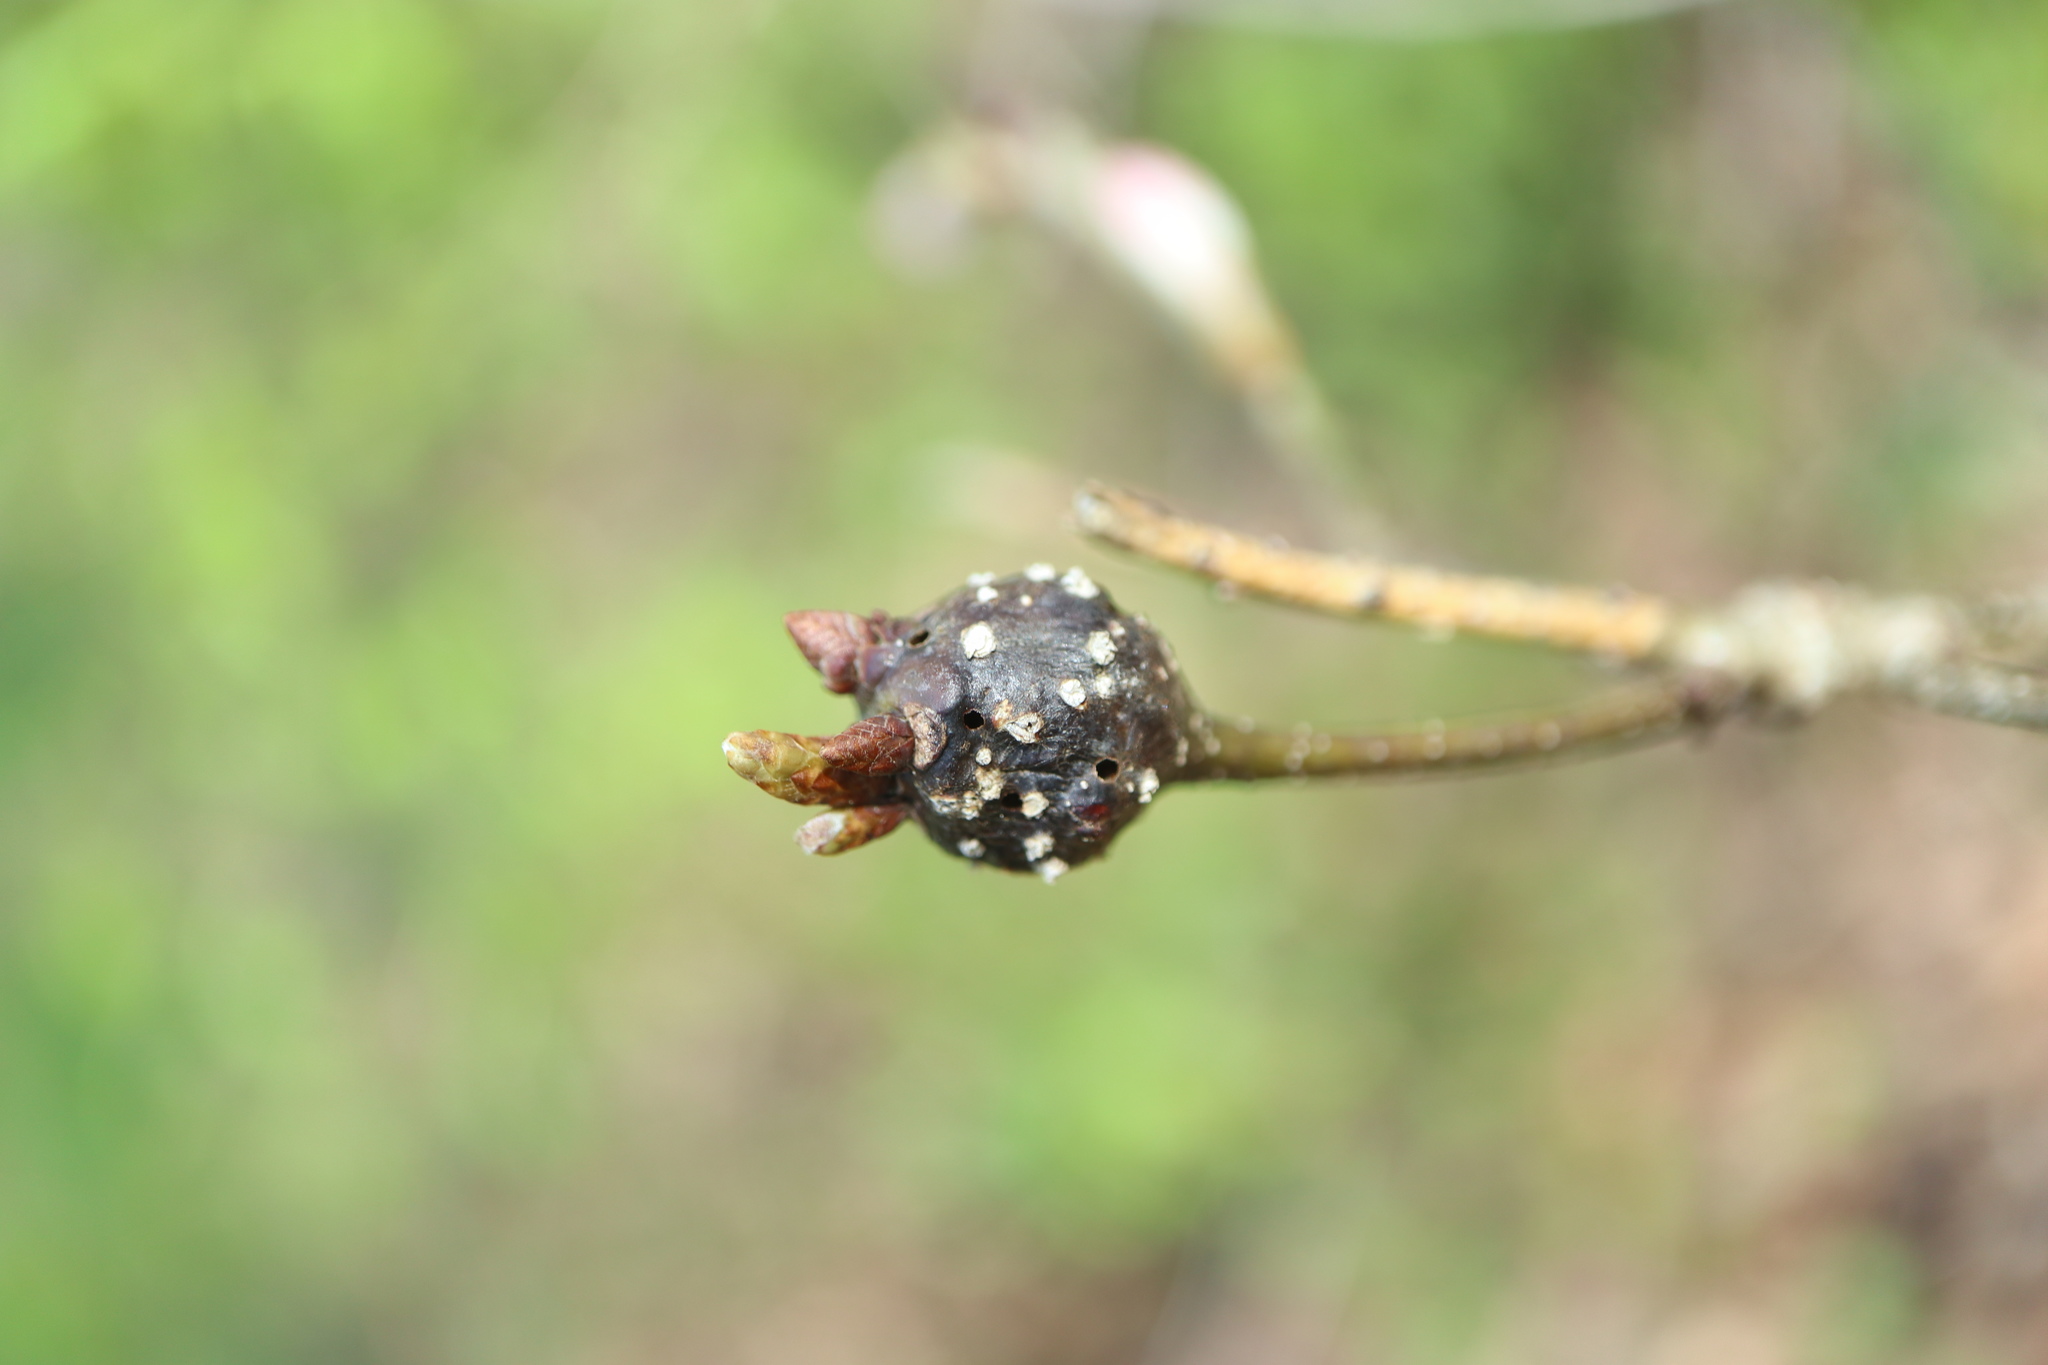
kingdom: Animalia
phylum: Arthropoda
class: Insecta
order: Hymenoptera
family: Cynipidae
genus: Callirhytis
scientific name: Callirhytis clavula
